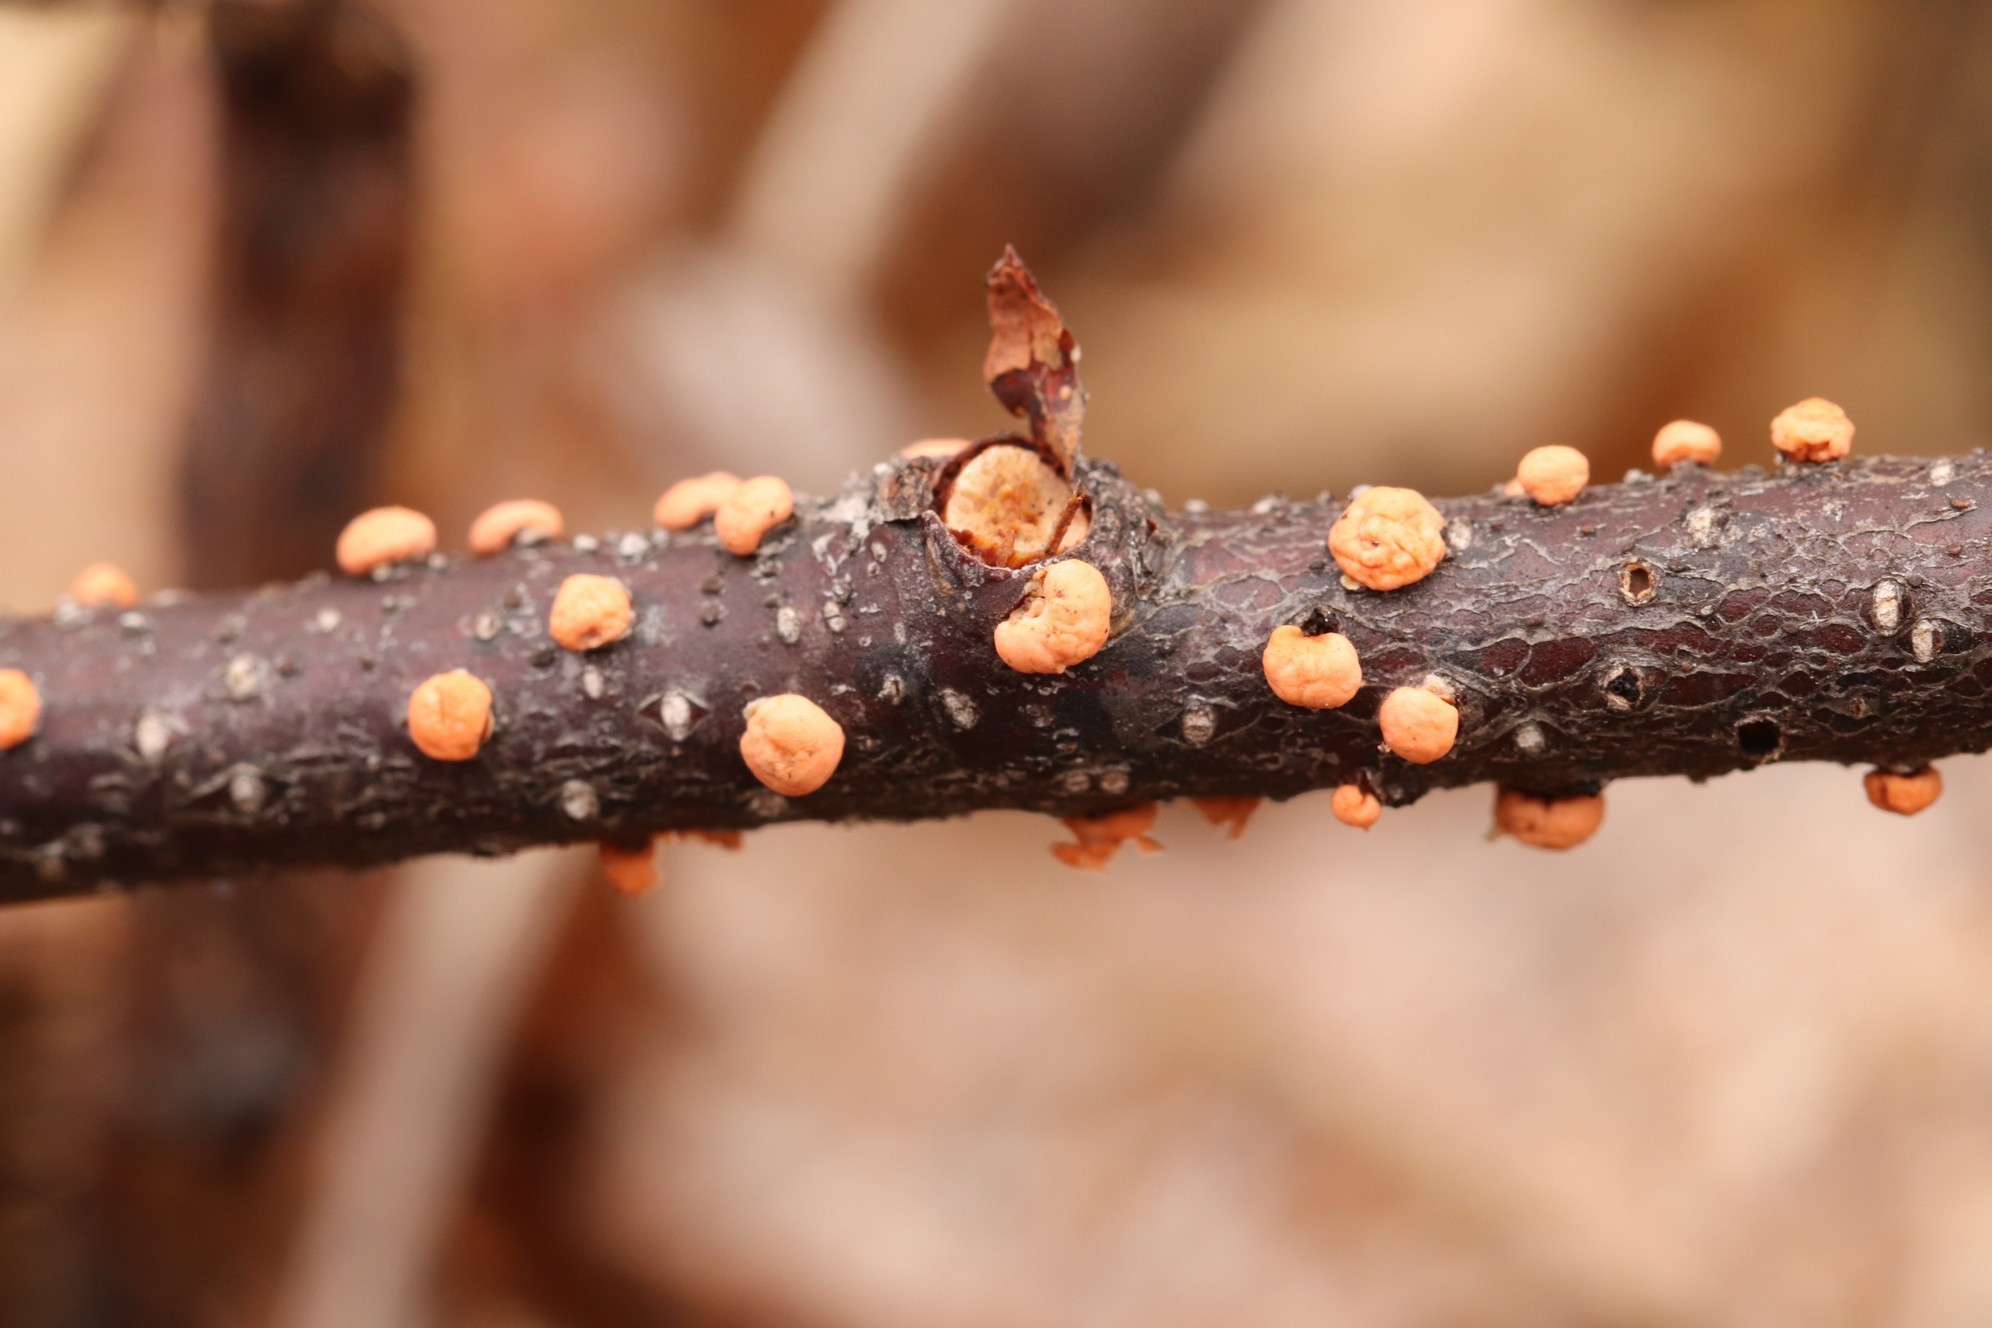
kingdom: Fungi
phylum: Ascomycota
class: Sordariomycetes
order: Hypocreales
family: Nectriaceae
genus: Nectria
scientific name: Nectria cinnabarina
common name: Coral spot
